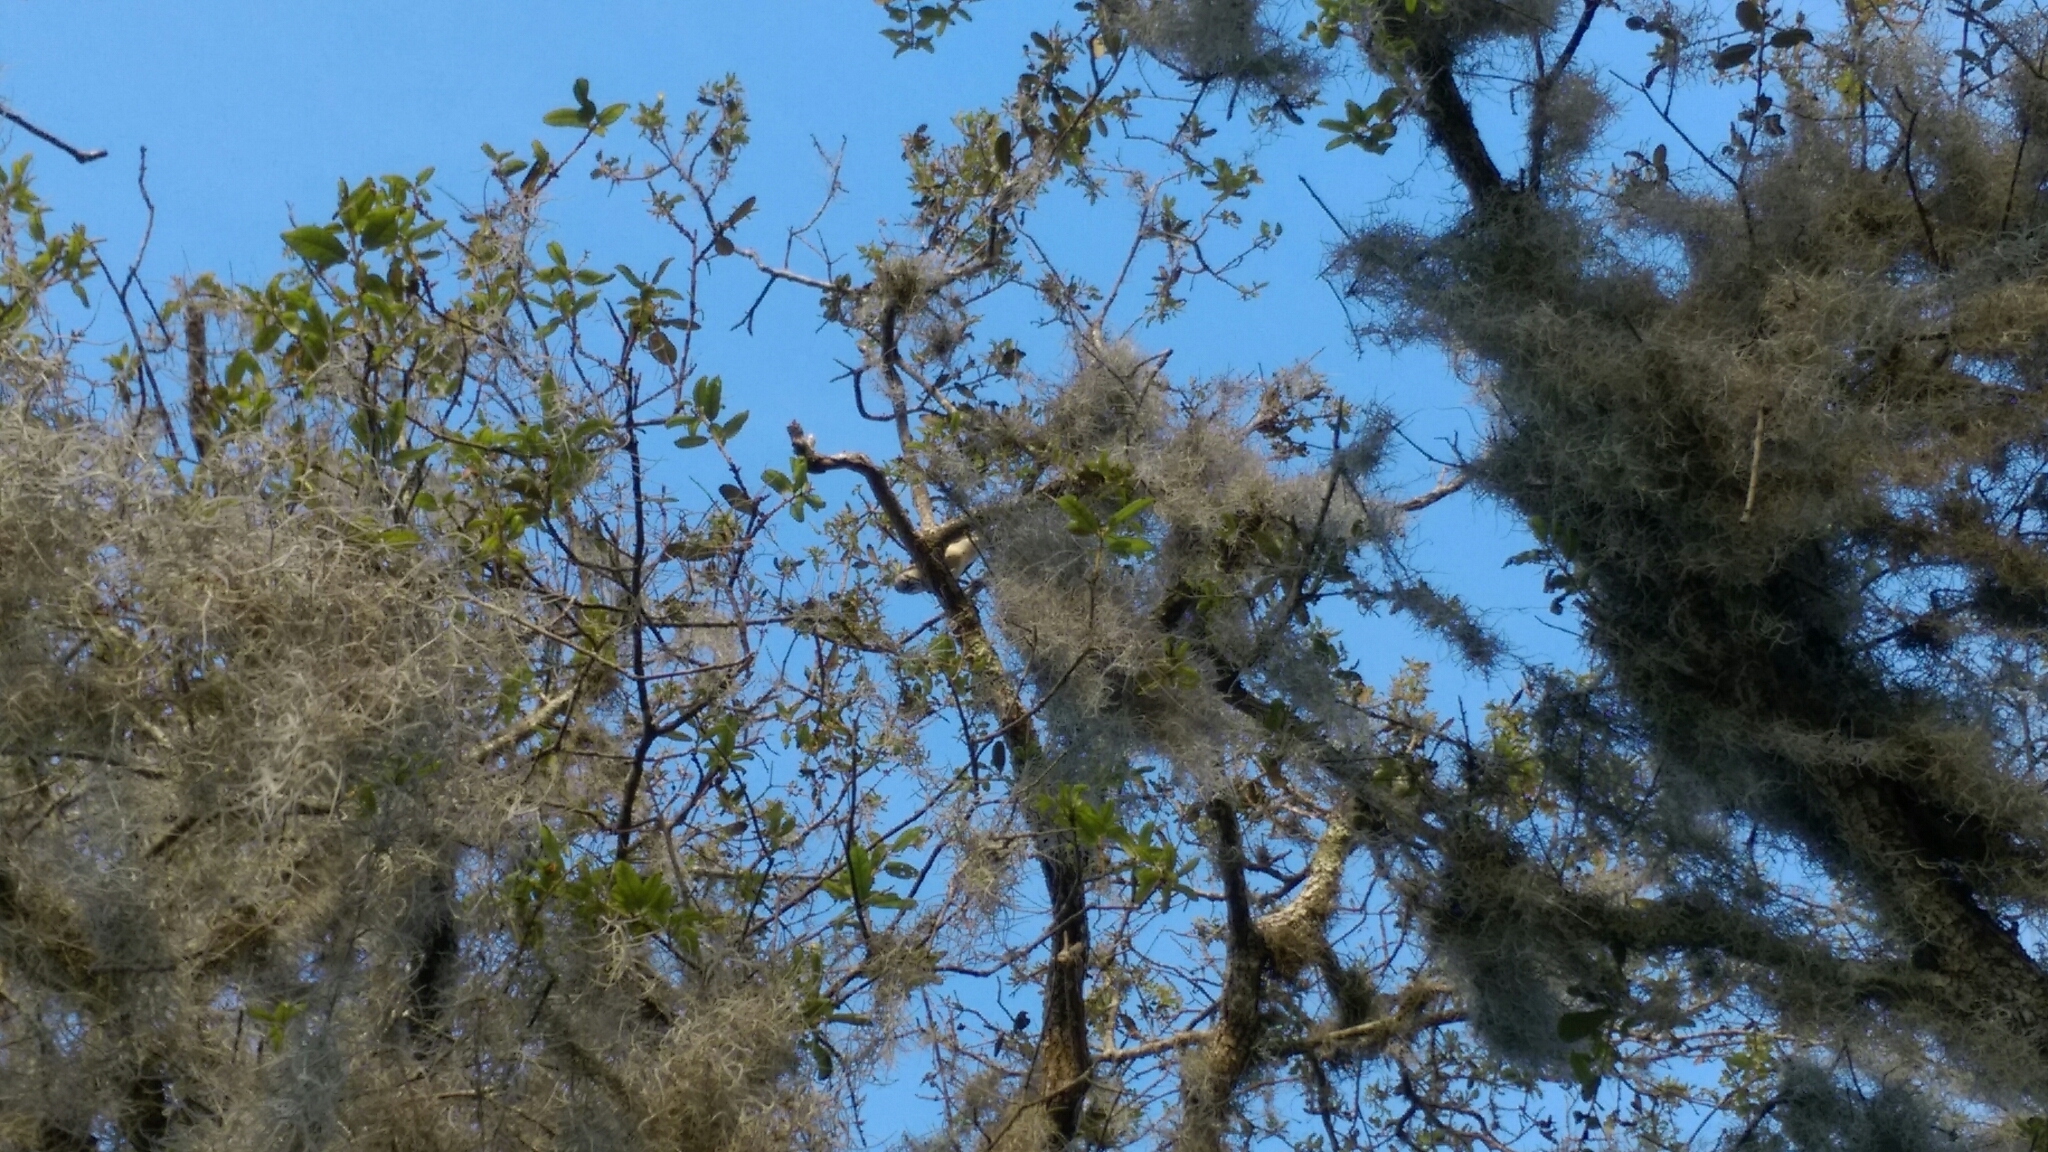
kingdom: Animalia
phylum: Chordata
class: Aves
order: Passeriformes
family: Corvidae
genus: Cyanocitta
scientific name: Cyanocitta cristata
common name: Blue jay
